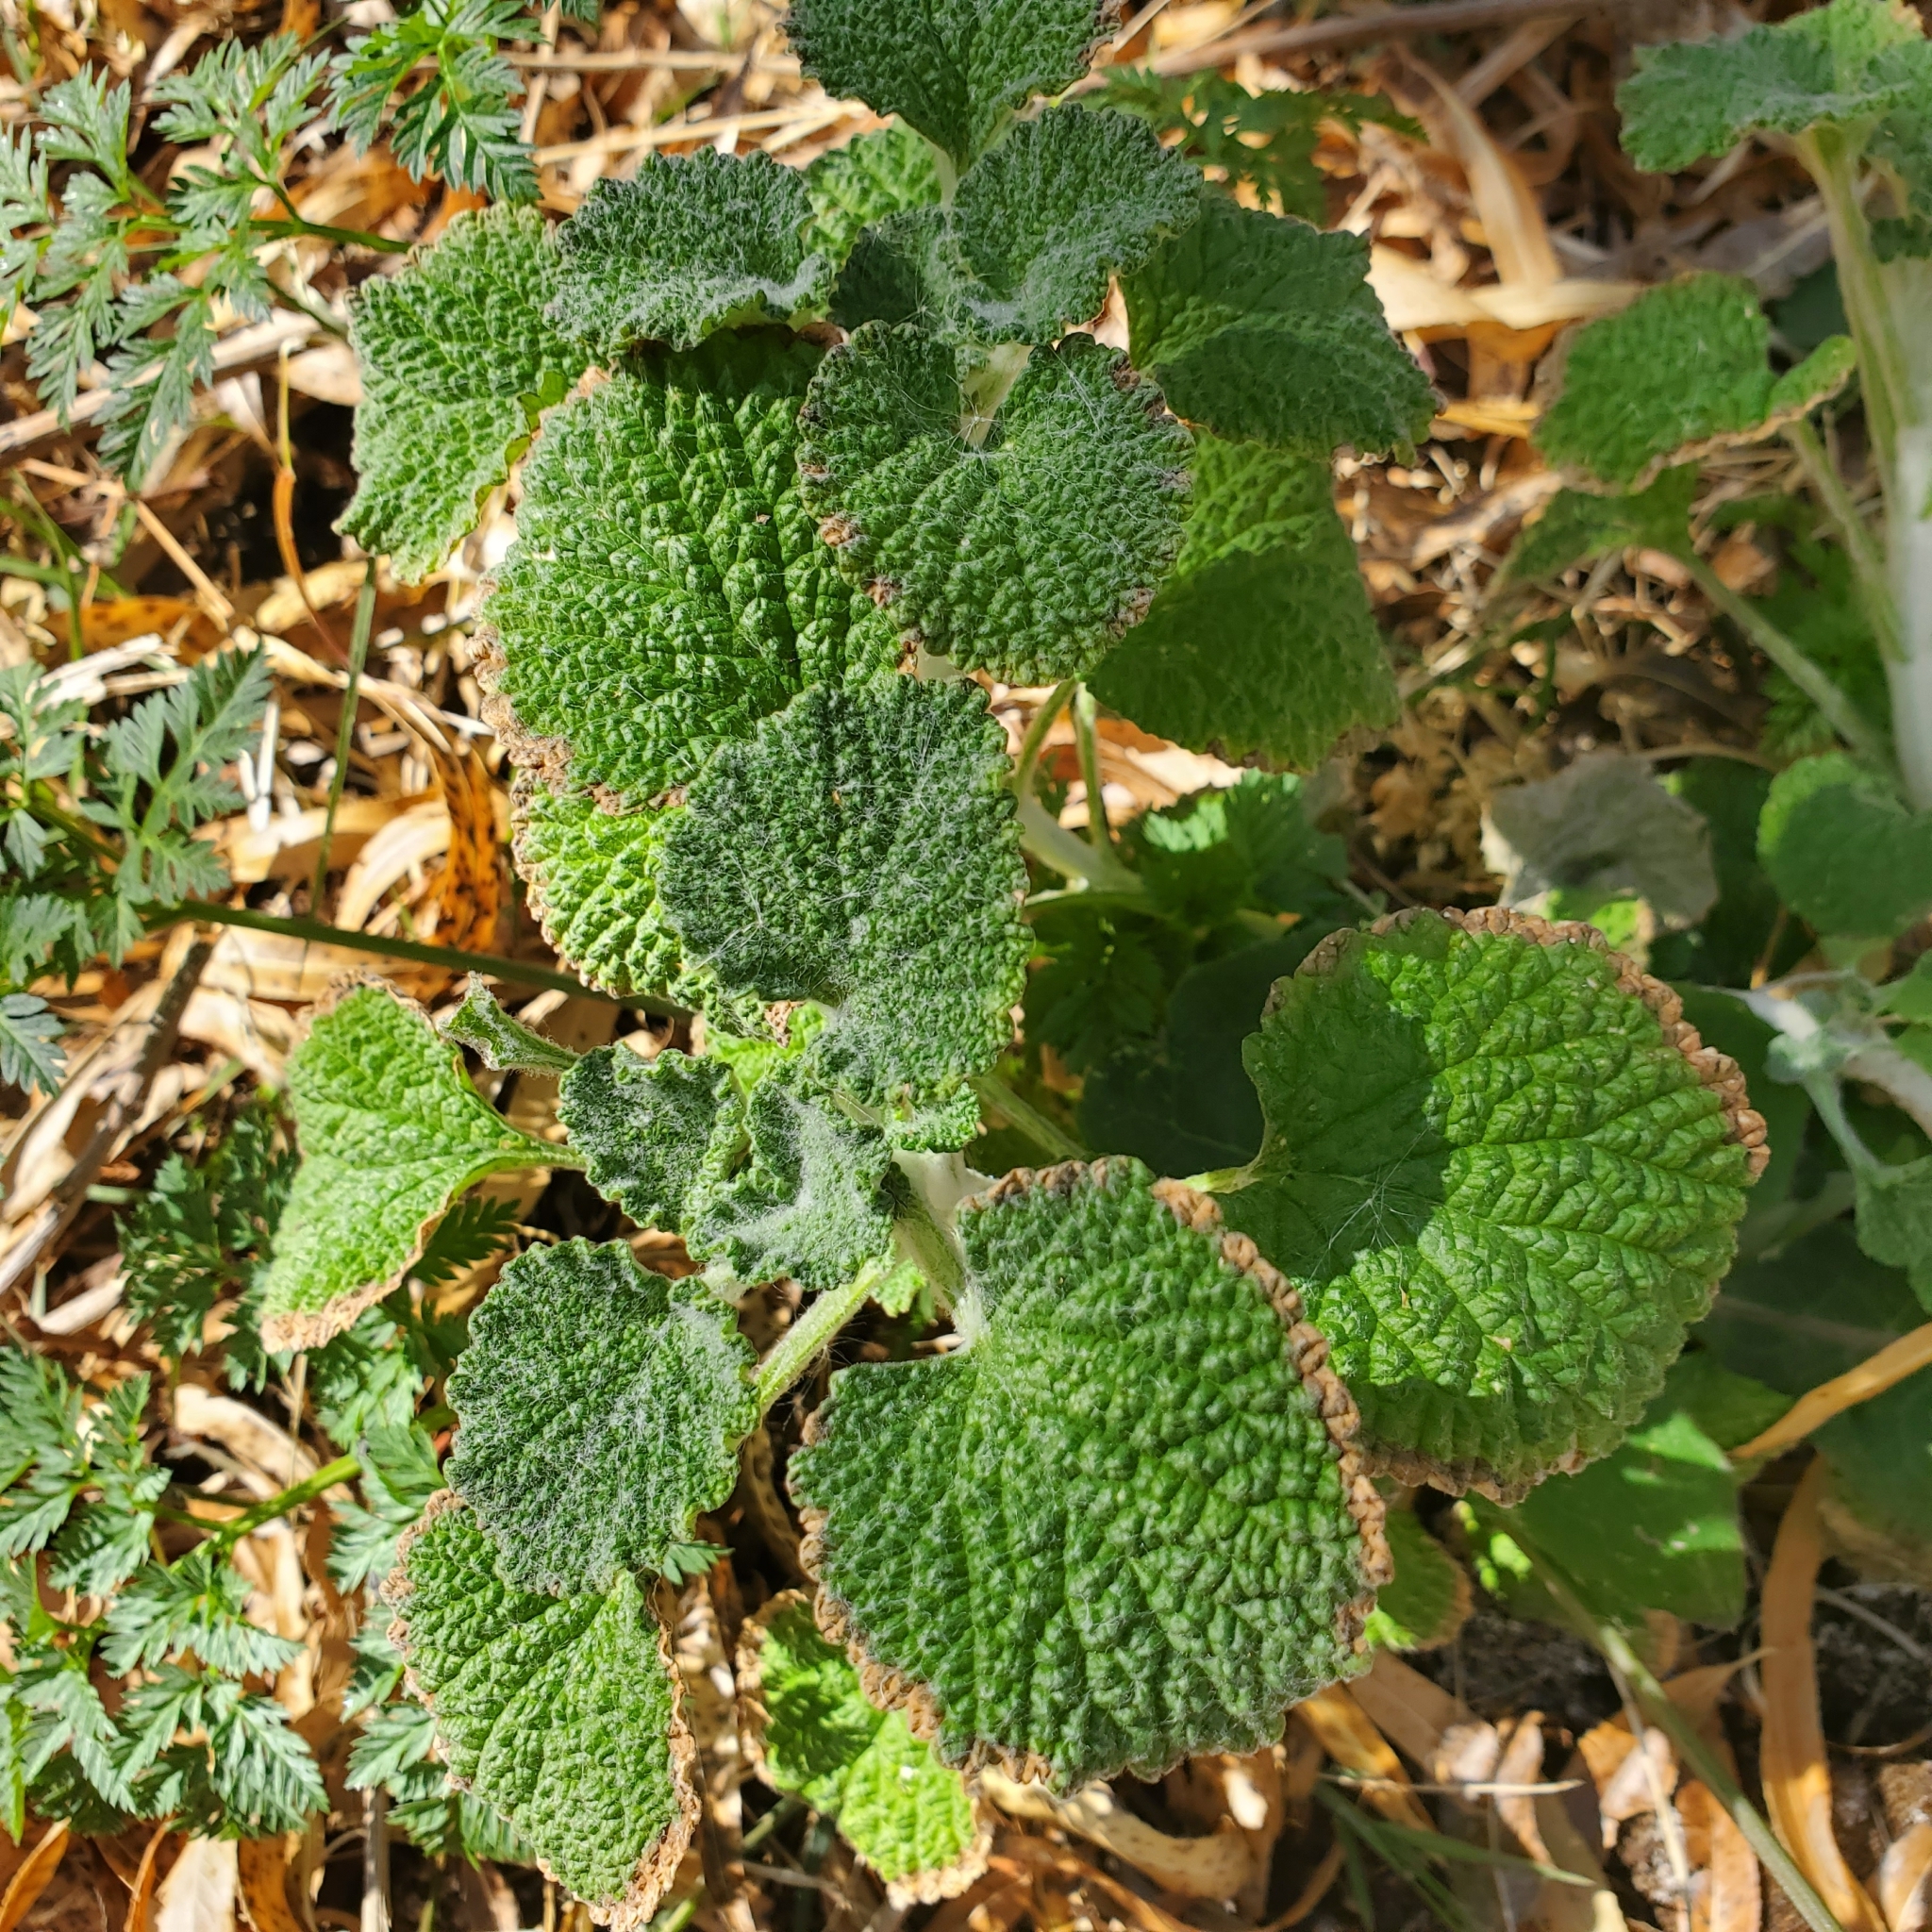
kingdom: Plantae
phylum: Tracheophyta
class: Magnoliopsida
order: Lamiales
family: Lamiaceae
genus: Marrubium
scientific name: Marrubium vulgare
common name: Horehound
